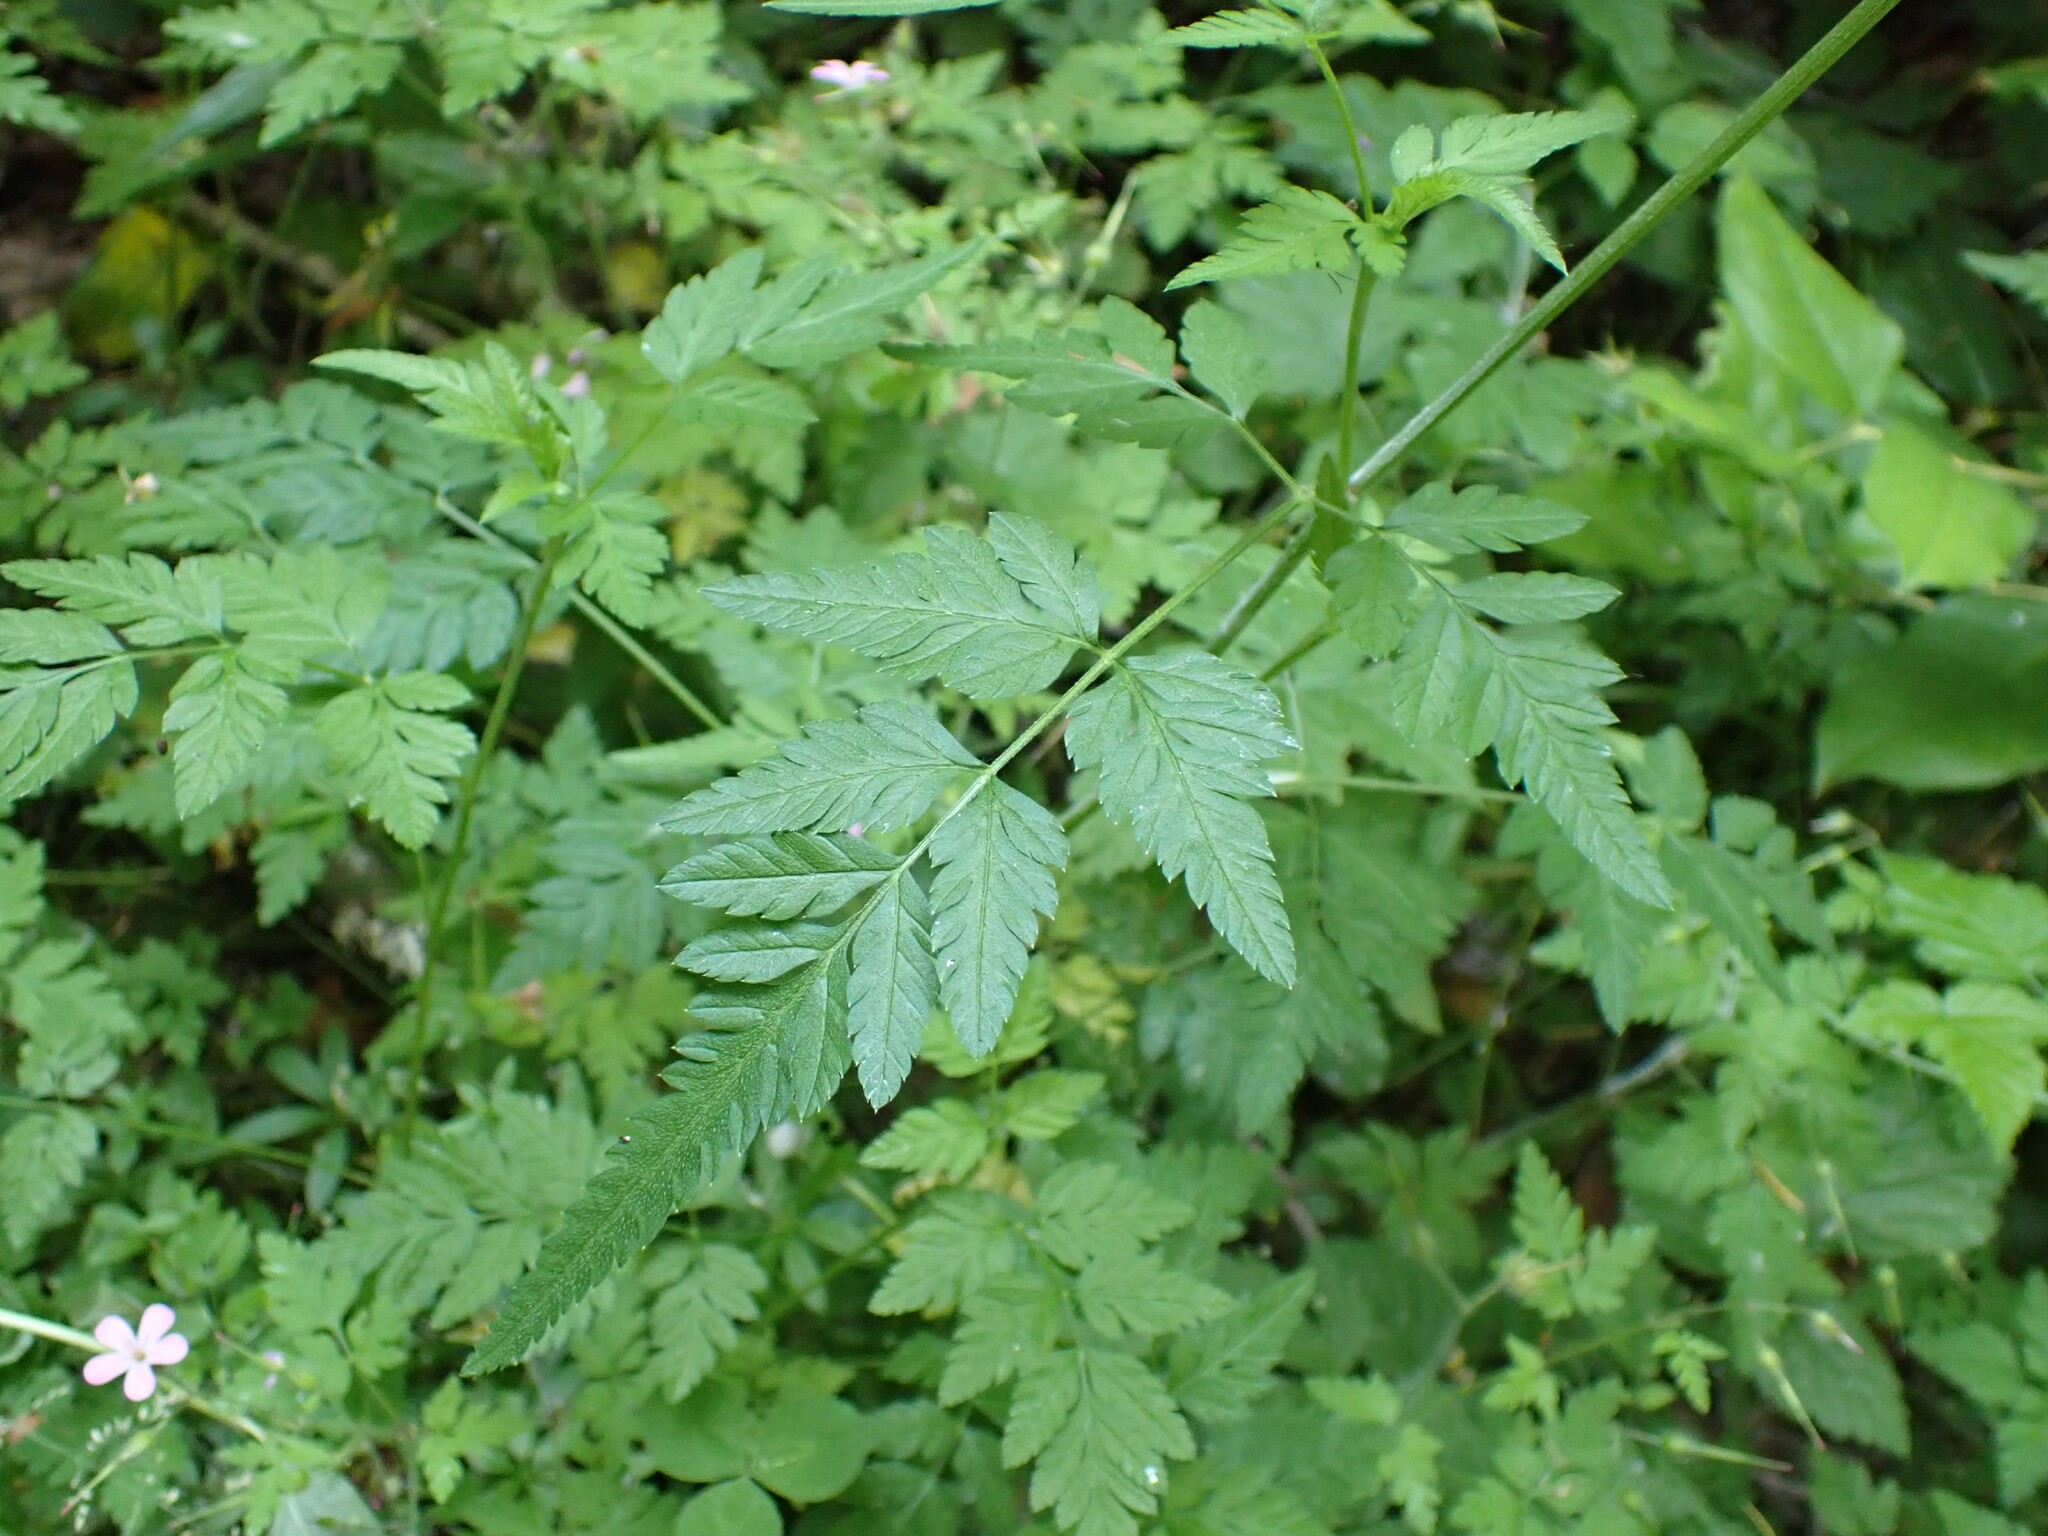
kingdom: Plantae
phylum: Tracheophyta
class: Magnoliopsida
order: Apiales
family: Apiaceae
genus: Torilis
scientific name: Torilis japonica
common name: Upright hedge-parsley
